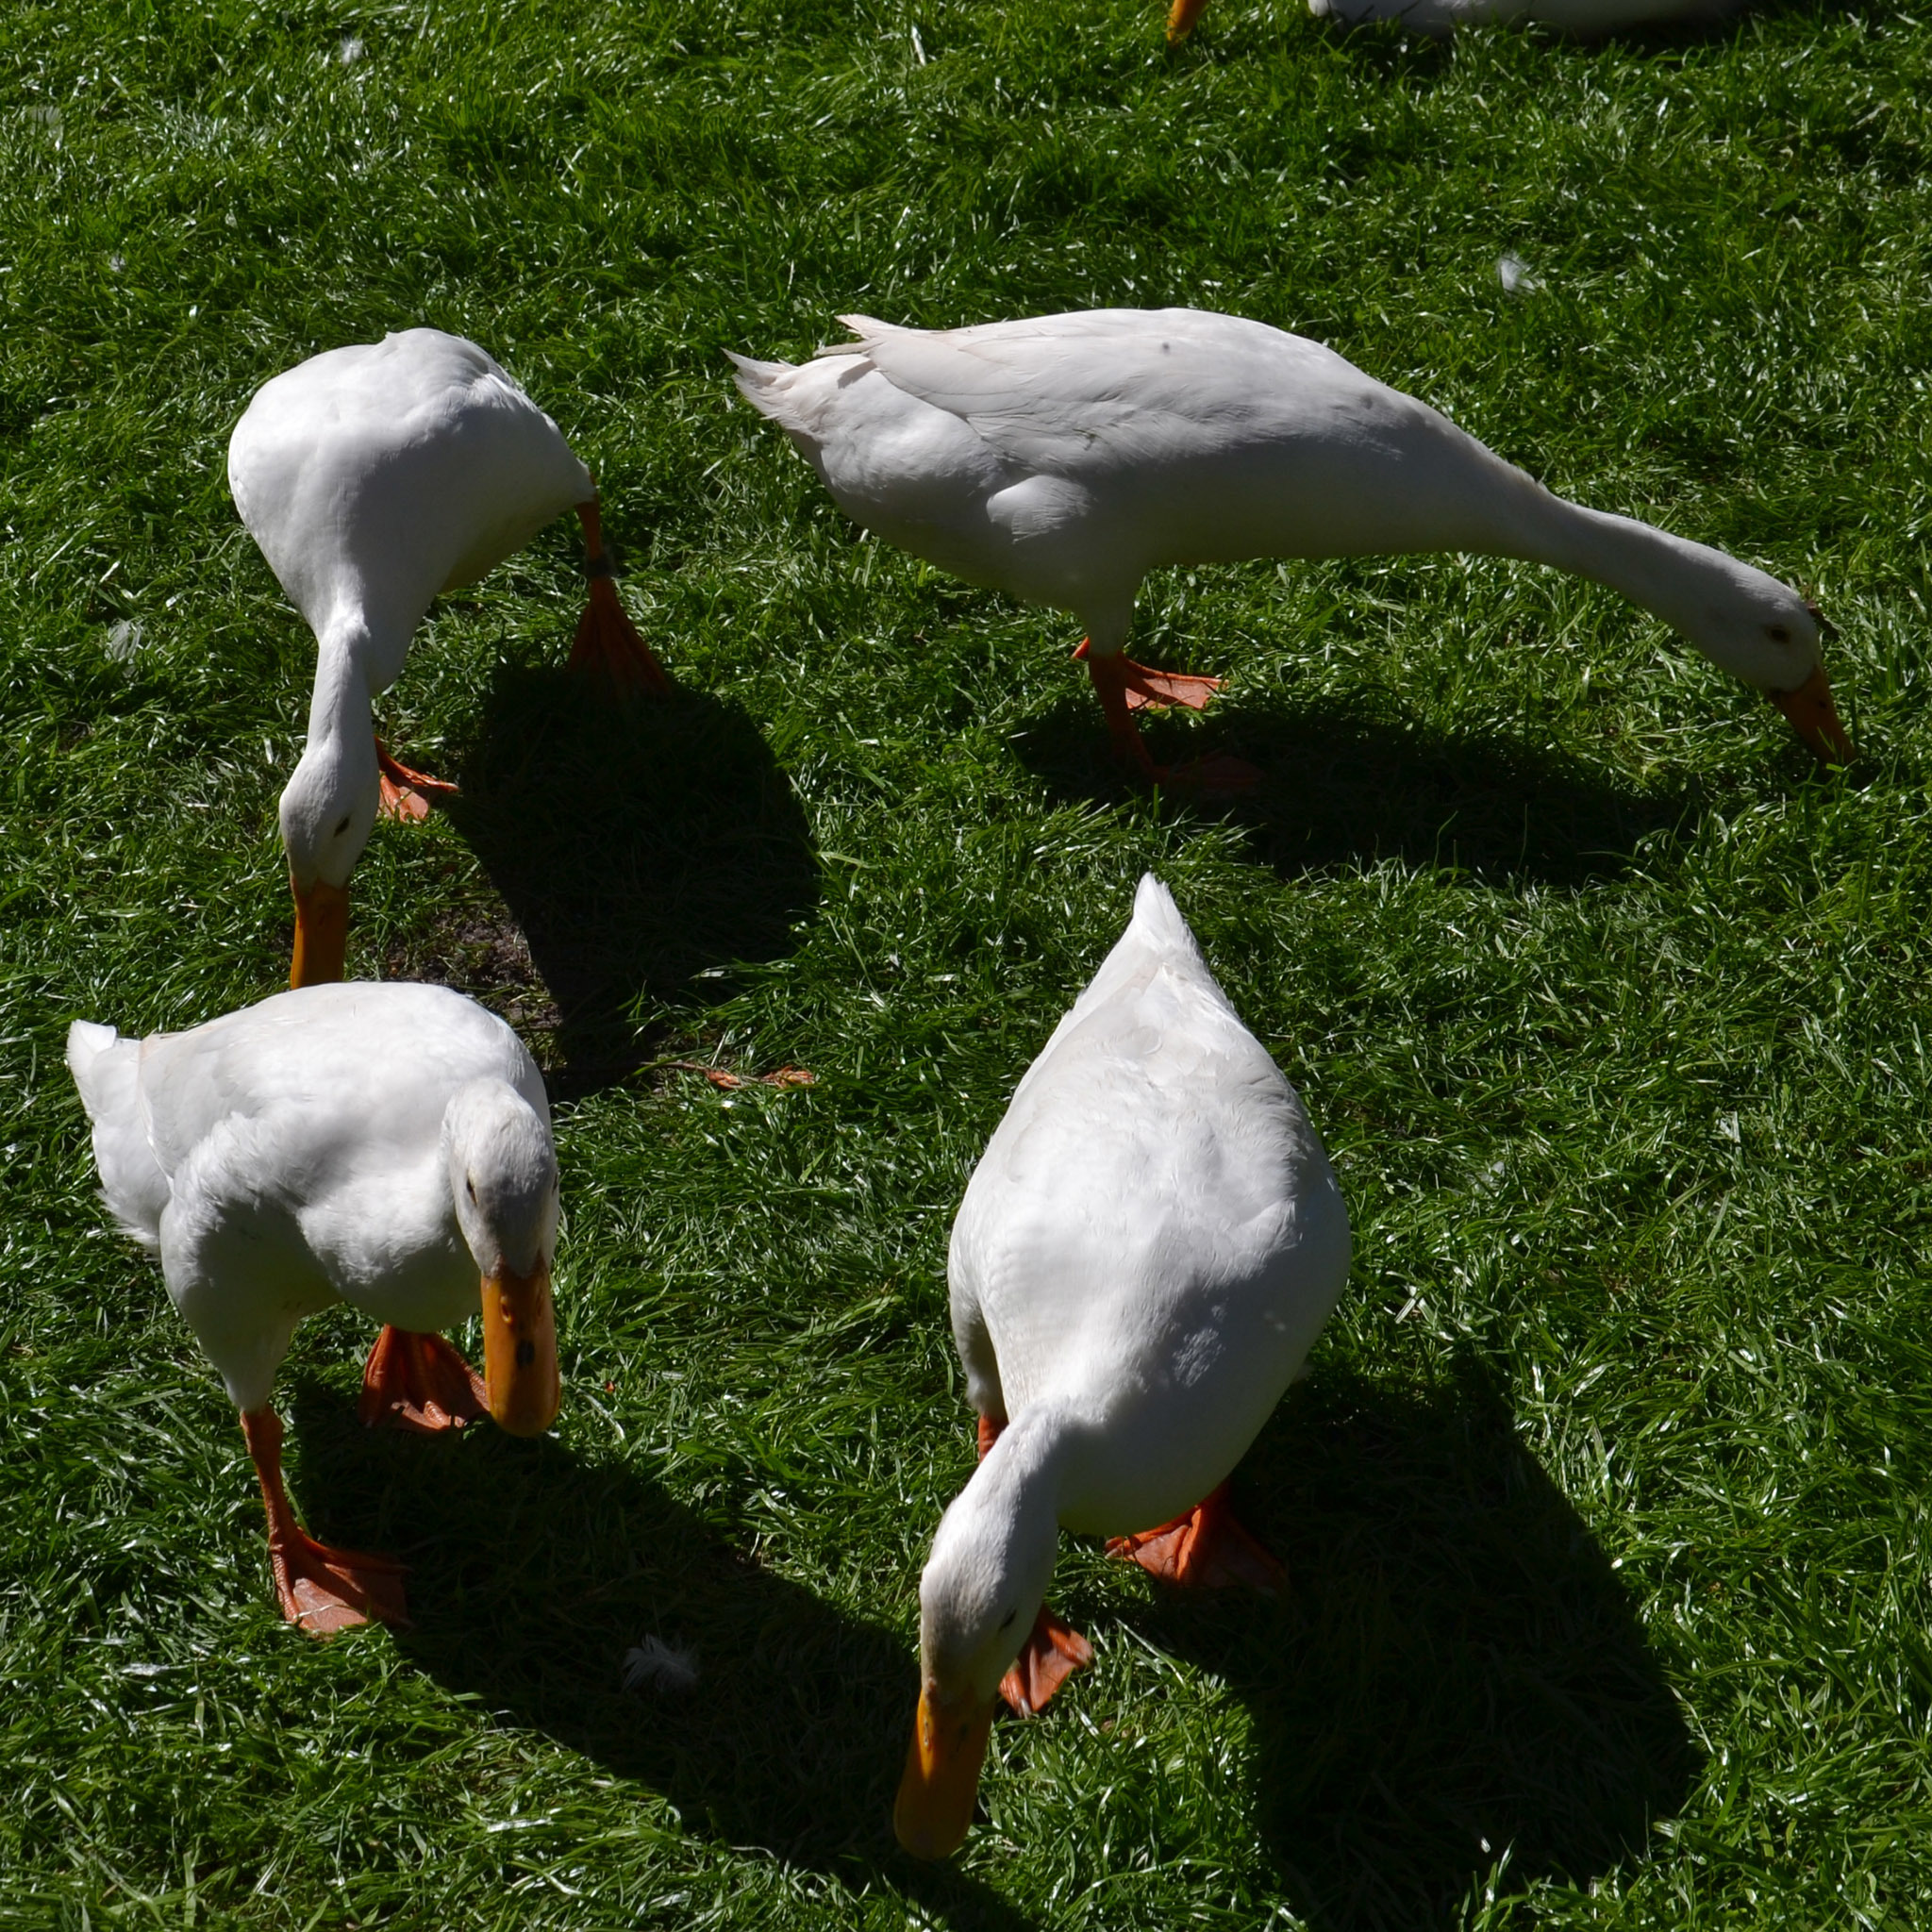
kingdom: Animalia
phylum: Chordata
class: Aves
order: Anseriformes
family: Anatidae
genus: Anas
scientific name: Anas platyrhynchos
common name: Mallard
